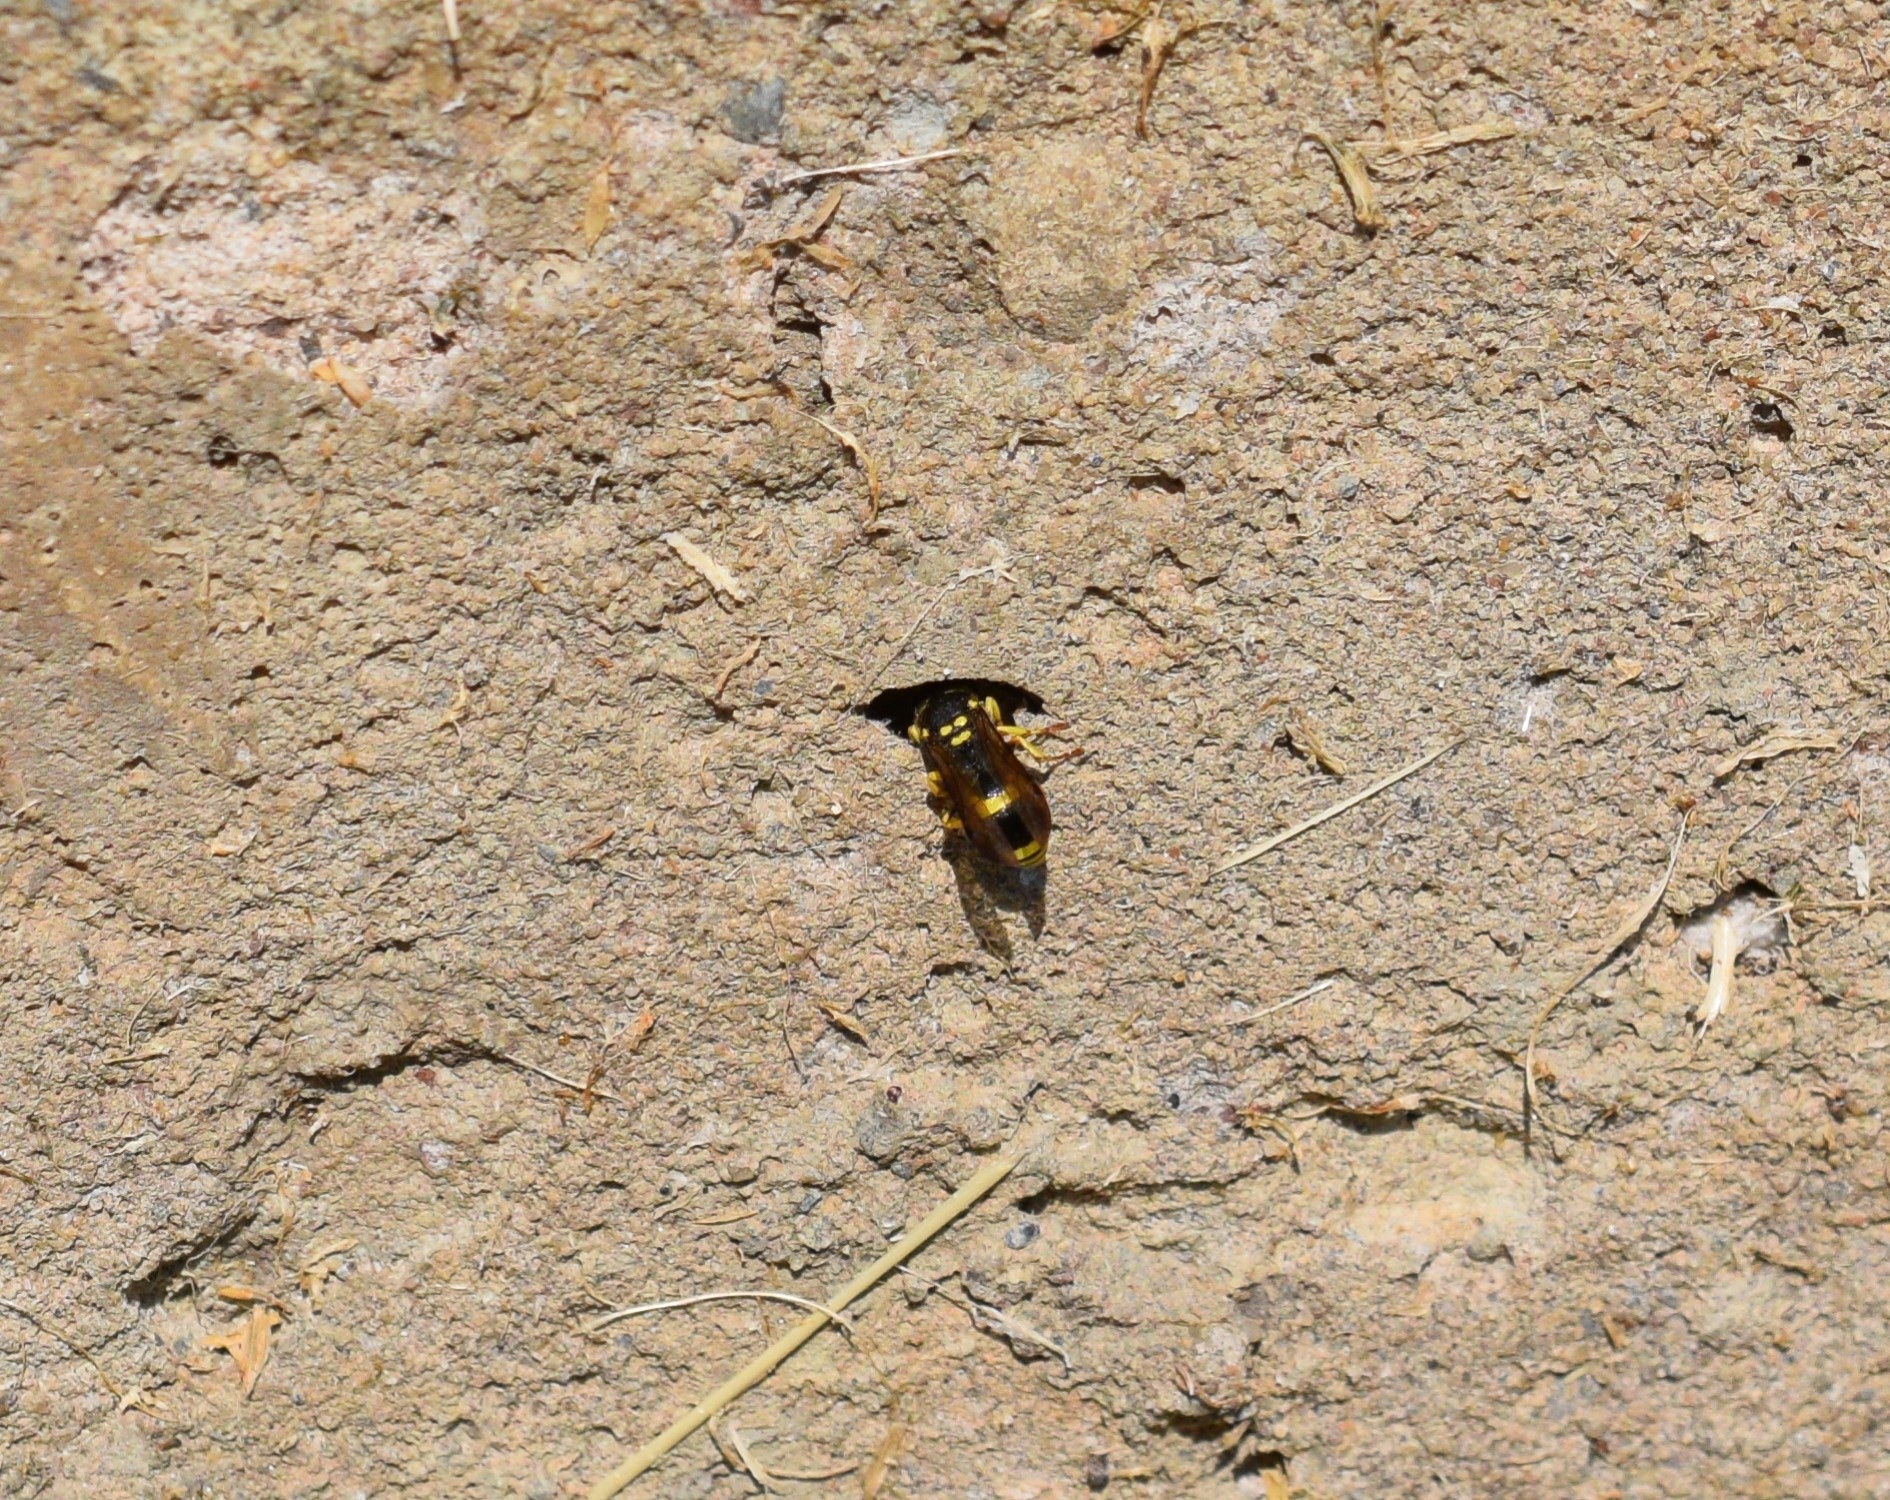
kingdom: Animalia
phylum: Arthropoda
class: Insecta
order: Hymenoptera
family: Vespidae
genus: Ancistrocerus
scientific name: Ancistrocerus gazella
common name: European tube wasp
